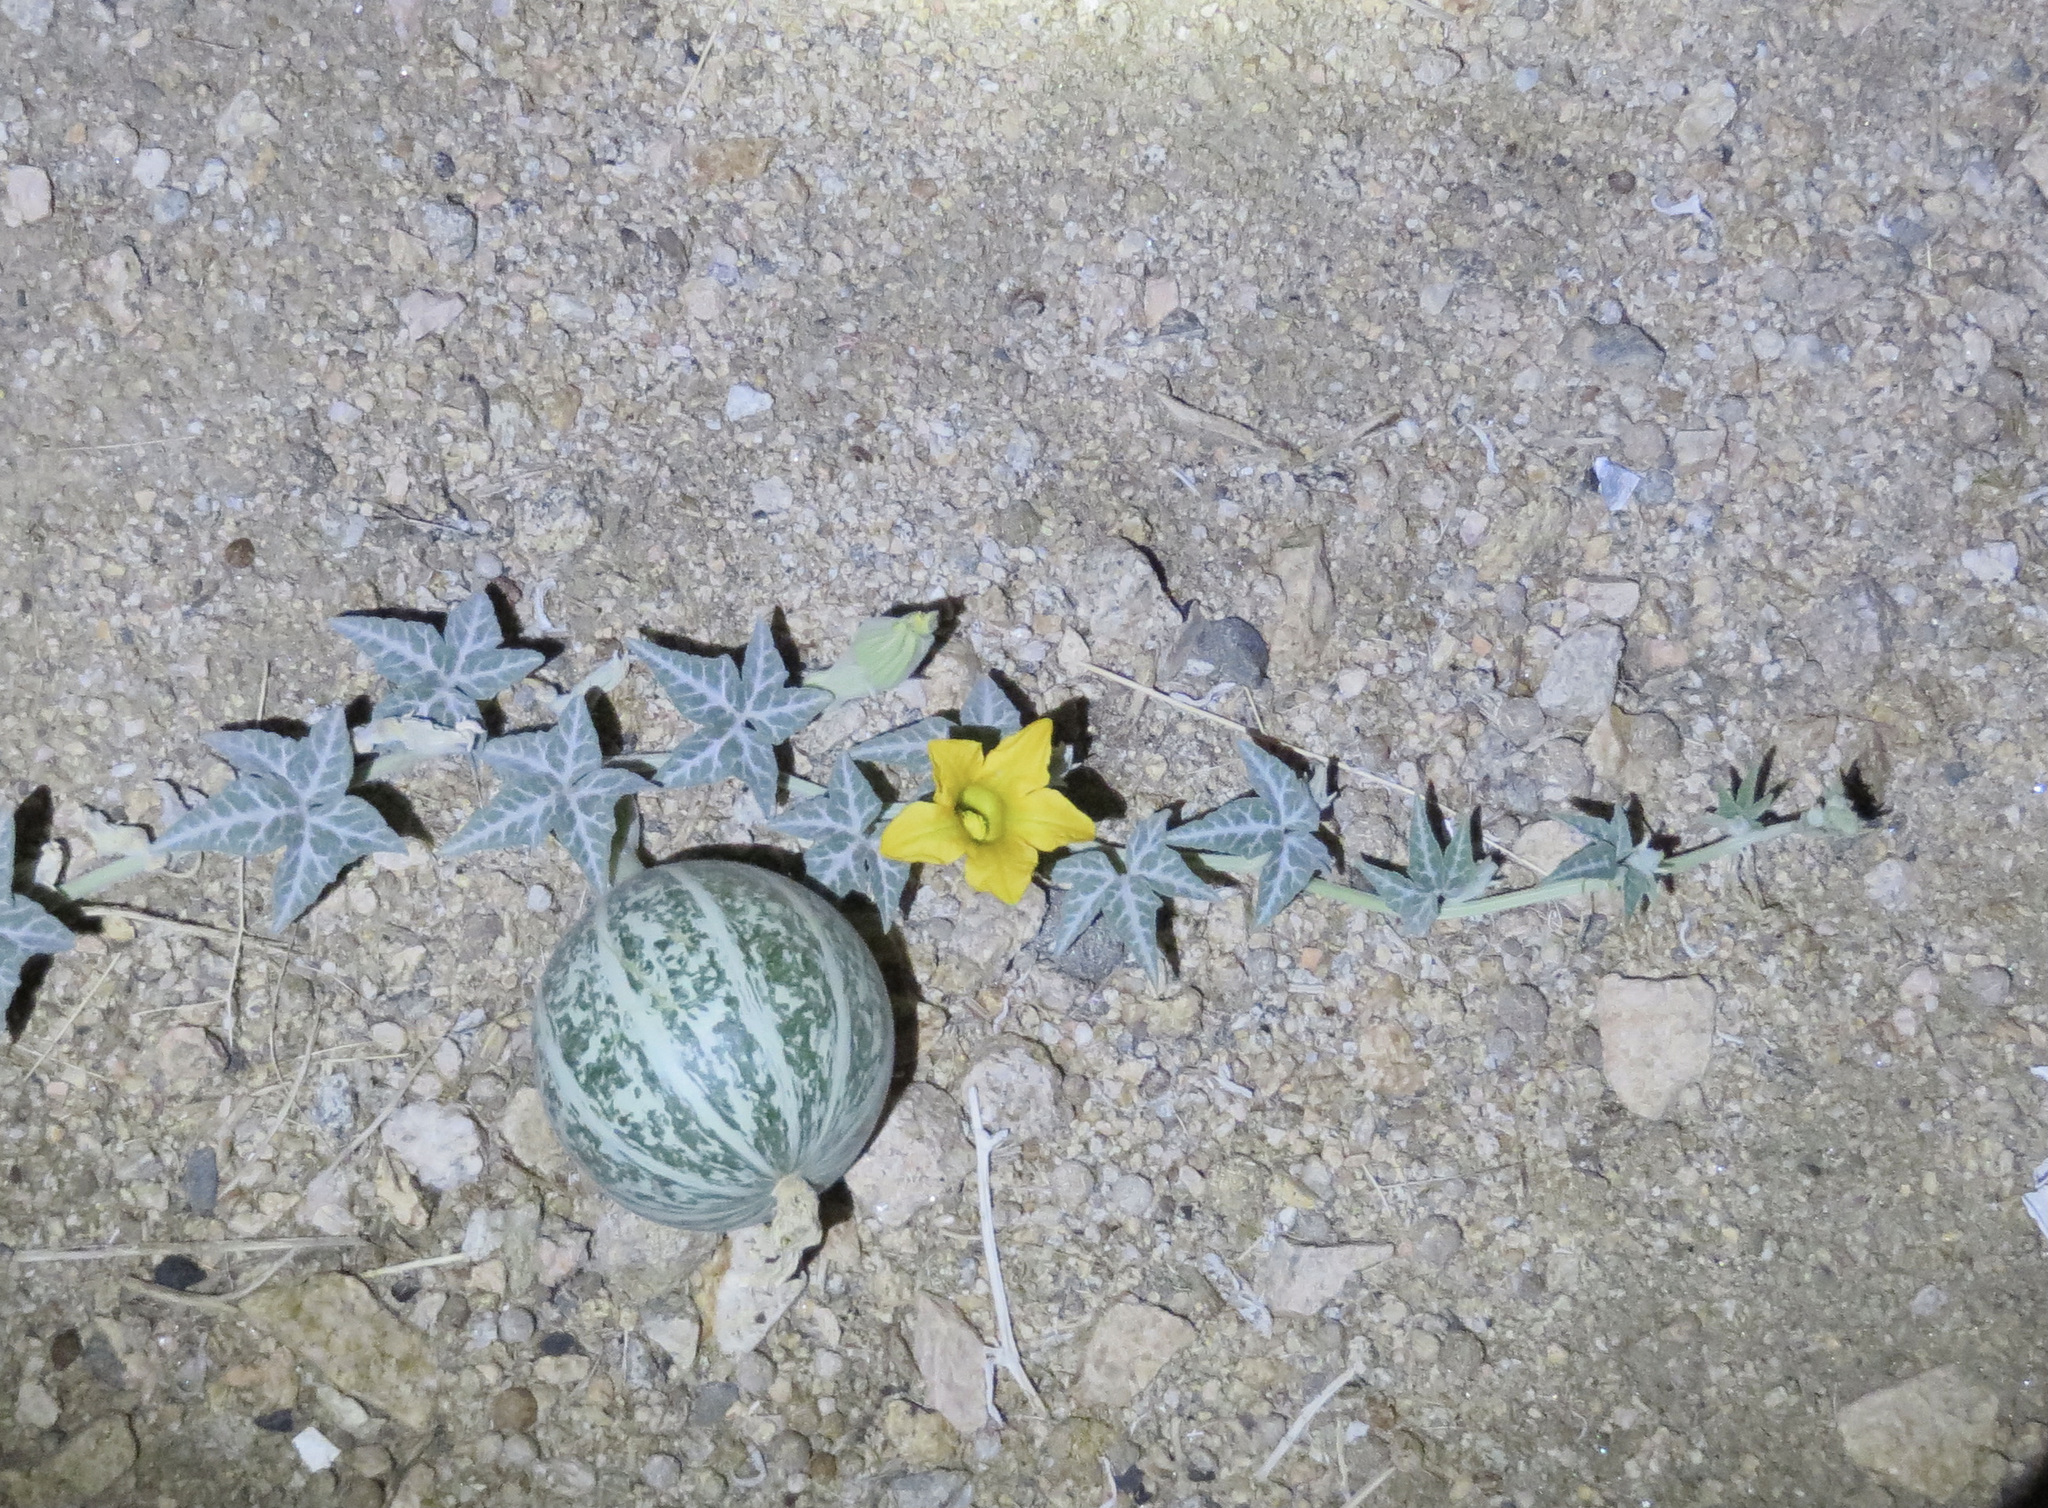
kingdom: Plantae
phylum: Tracheophyta
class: Magnoliopsida
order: Cucurbitales
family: Cucurbitaceae
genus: Cucurbita
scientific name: Cucurbita palmata
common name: Coyote-melon
